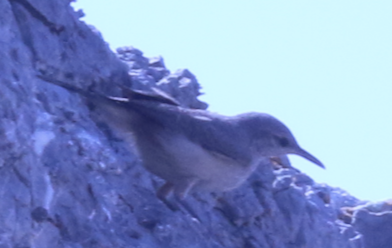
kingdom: Animalia
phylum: Chordata
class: Aves
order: Passeriformes
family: Troglodytidae
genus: Salpinctes
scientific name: Salpinctes obsoletus
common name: Rock wren
